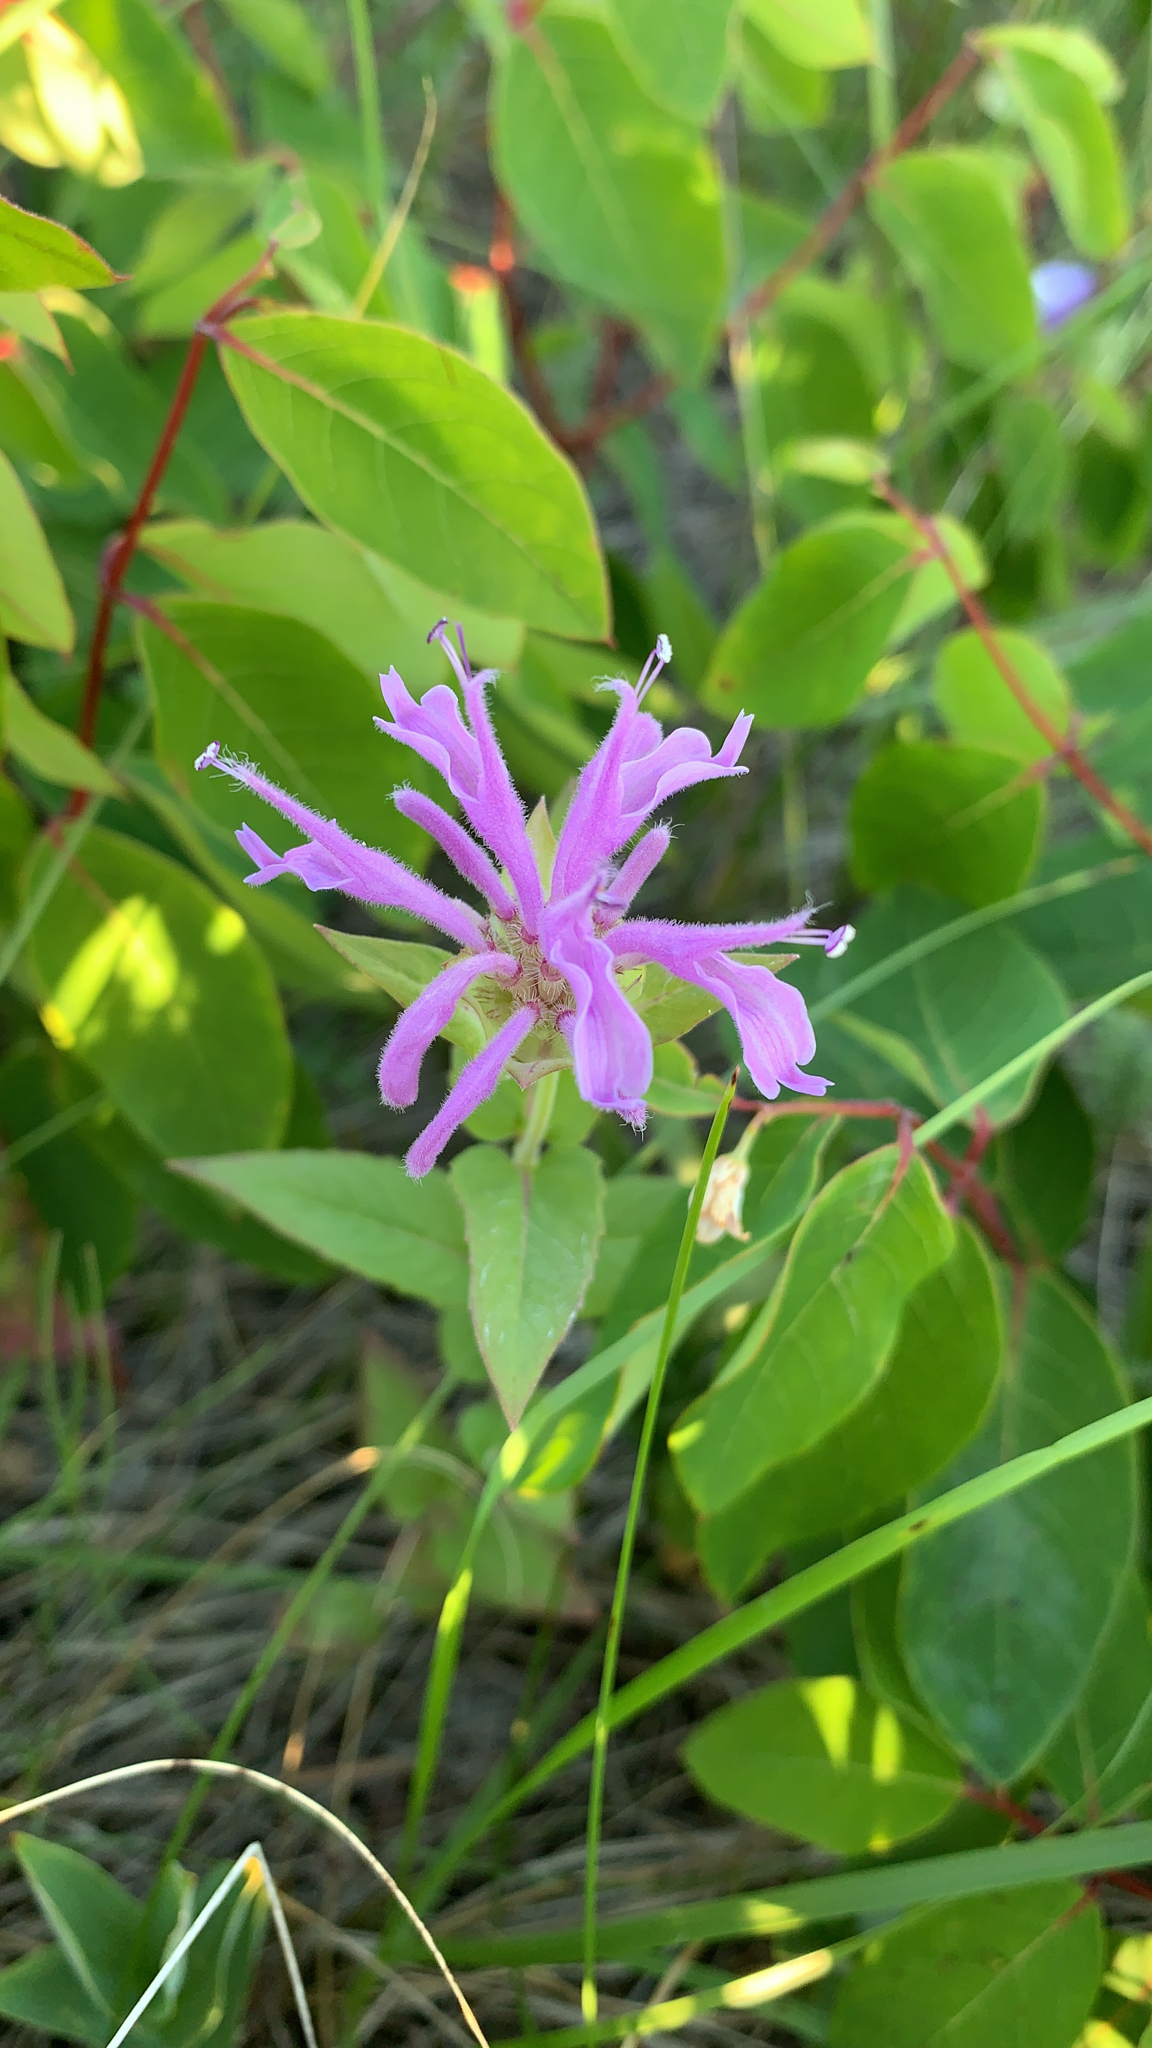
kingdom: Plantae
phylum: Tracheophyta
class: Magnoliopsida
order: Lamiales
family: Lamiaceae
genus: Monarda
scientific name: Monarda fistulosa
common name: Purple beebalm
